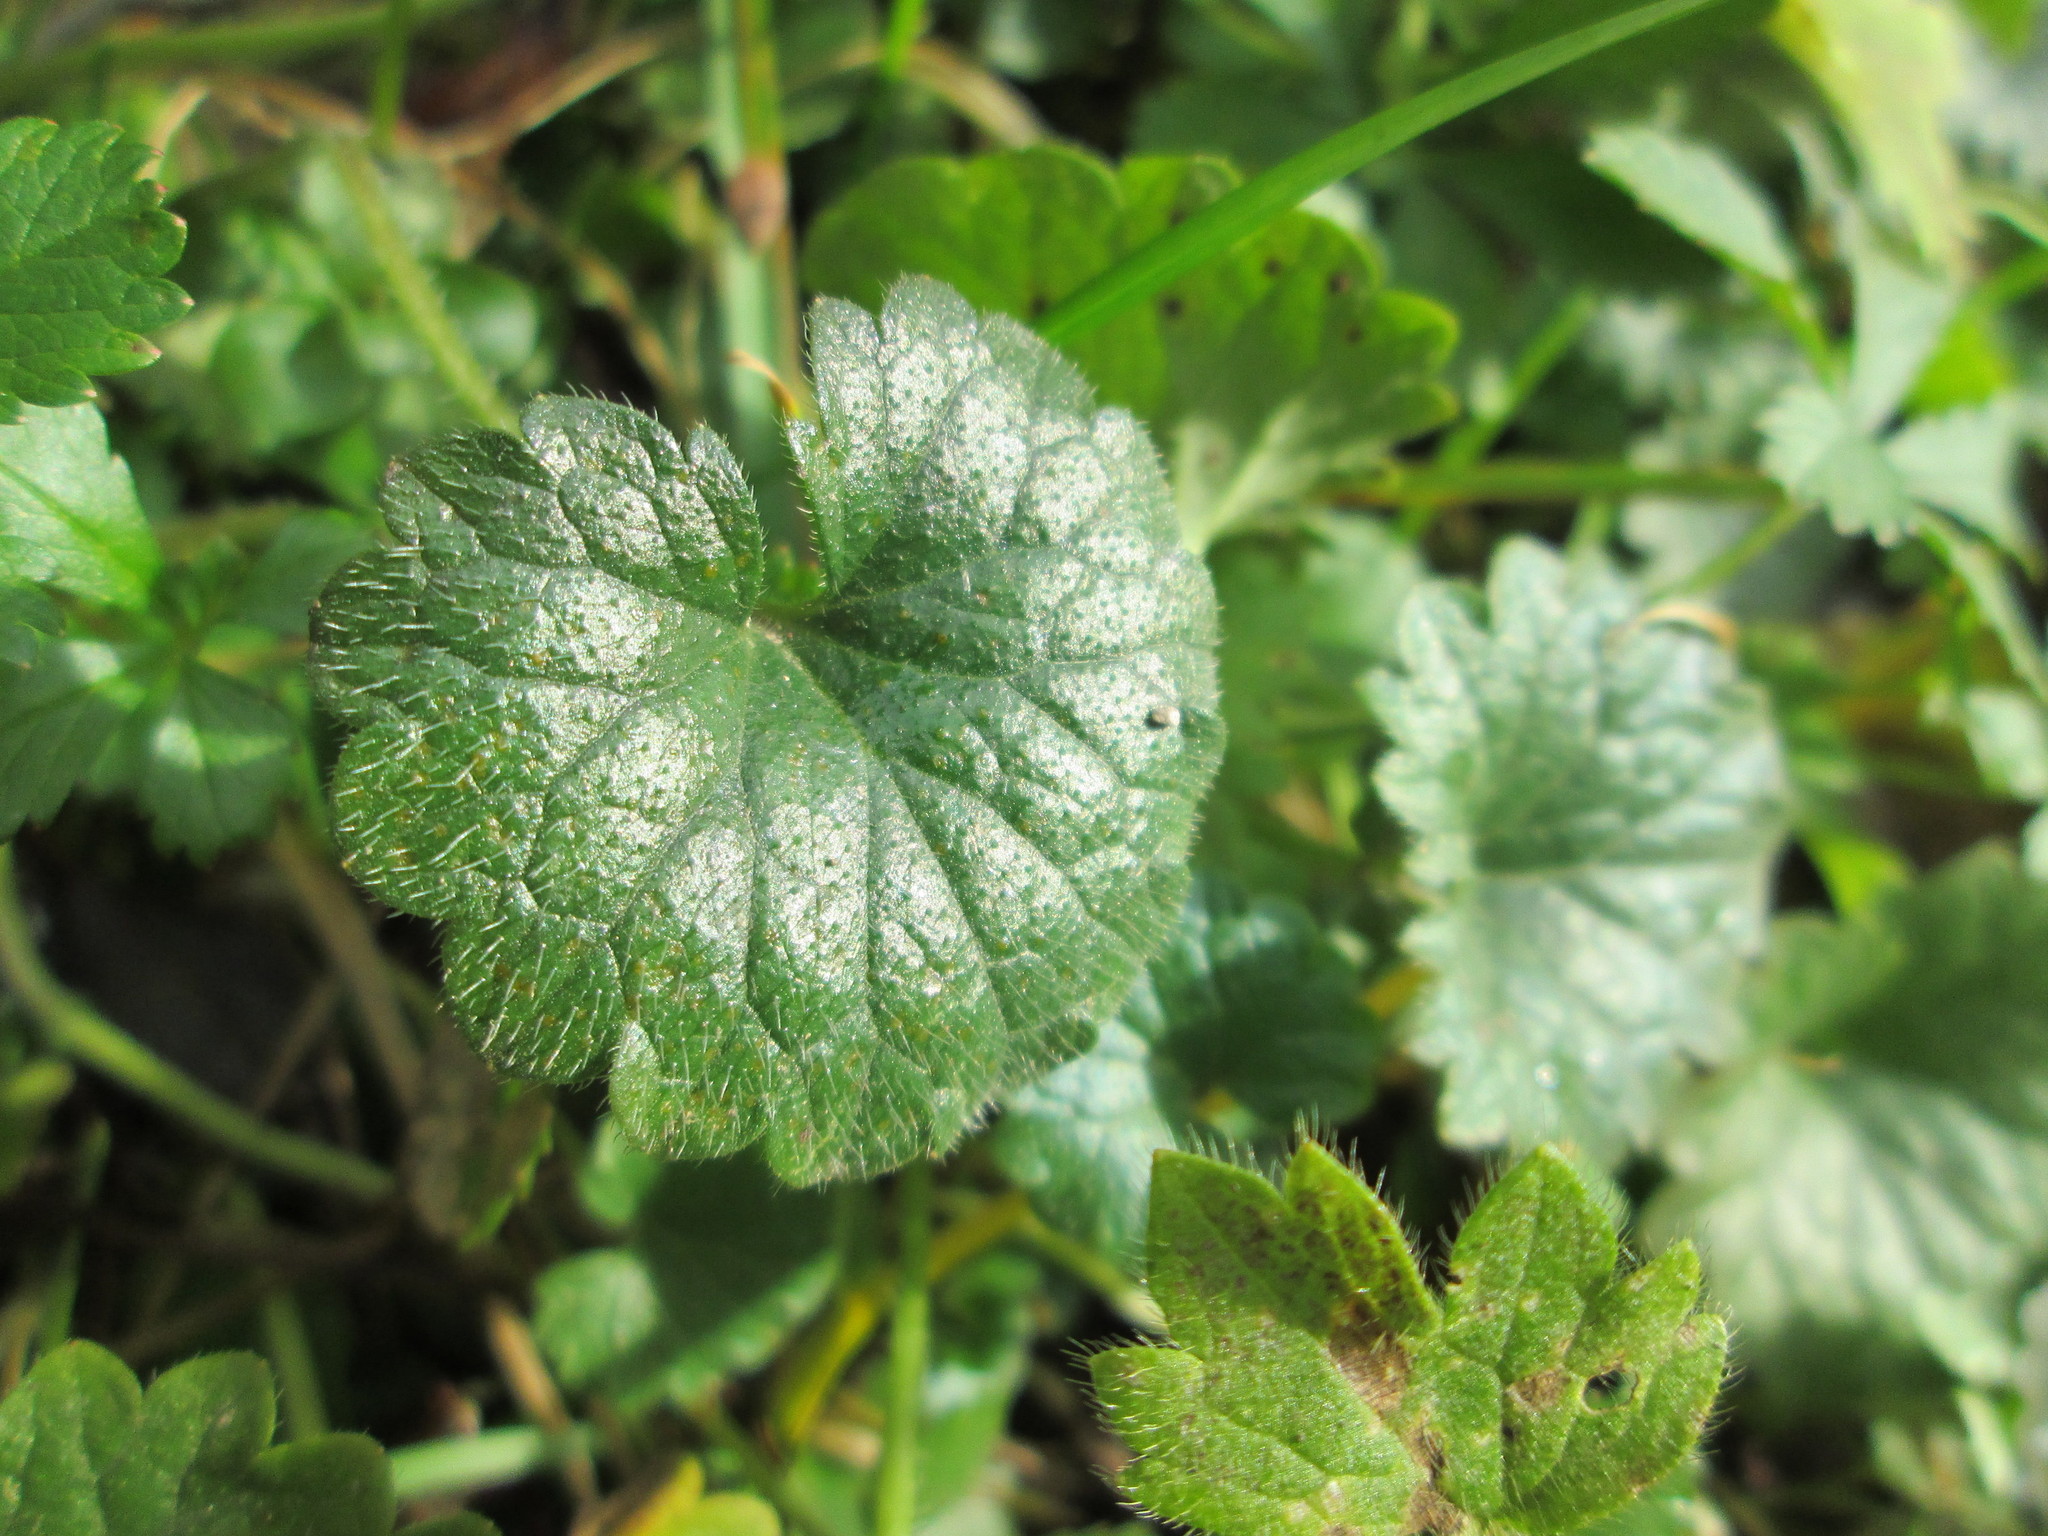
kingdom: Plantae
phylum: Tracheophyta
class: Magnoliopsida
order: Lamiales
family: Lamiaceae
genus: Glechoma
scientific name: Glechoma hederacea
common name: Ground ivy
